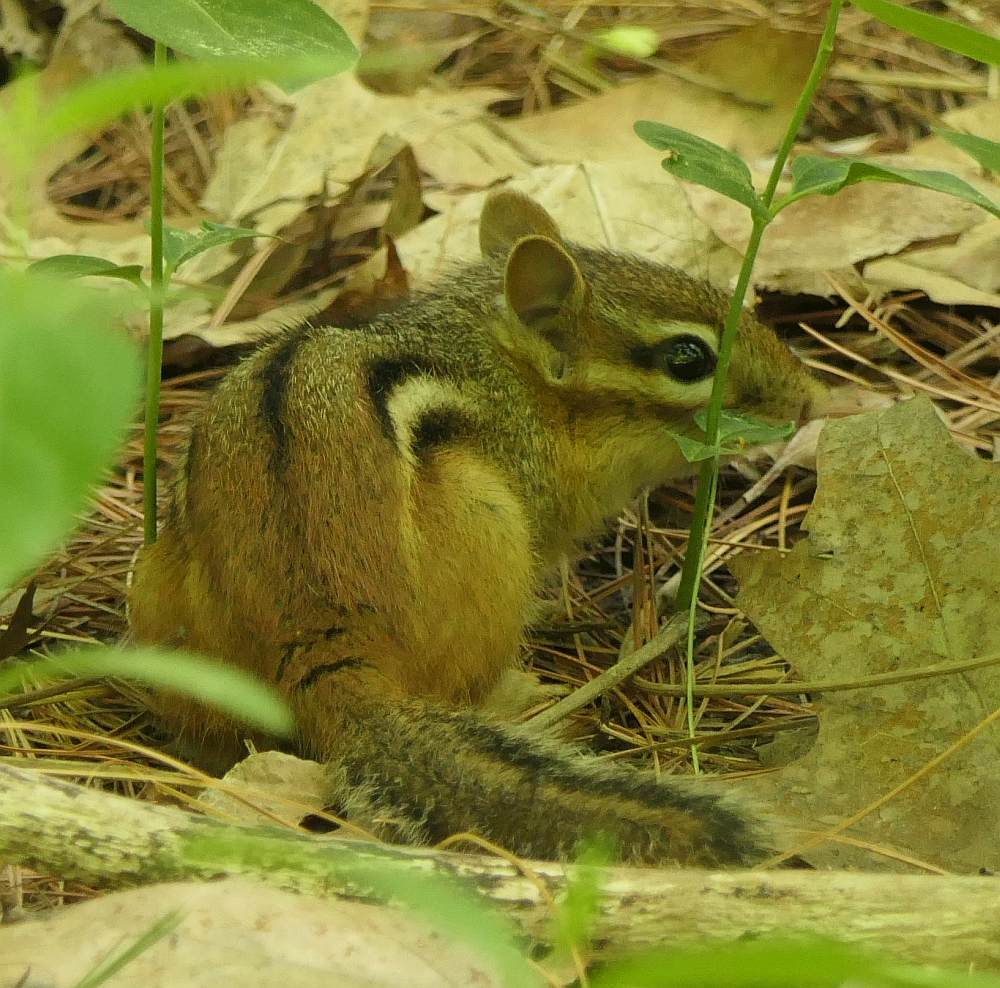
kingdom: Animalia
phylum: Chordata
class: Mammalia
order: Rodentia
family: Sciuridae
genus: Tamias
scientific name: Tamias striatus
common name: Eastern chipmunk
